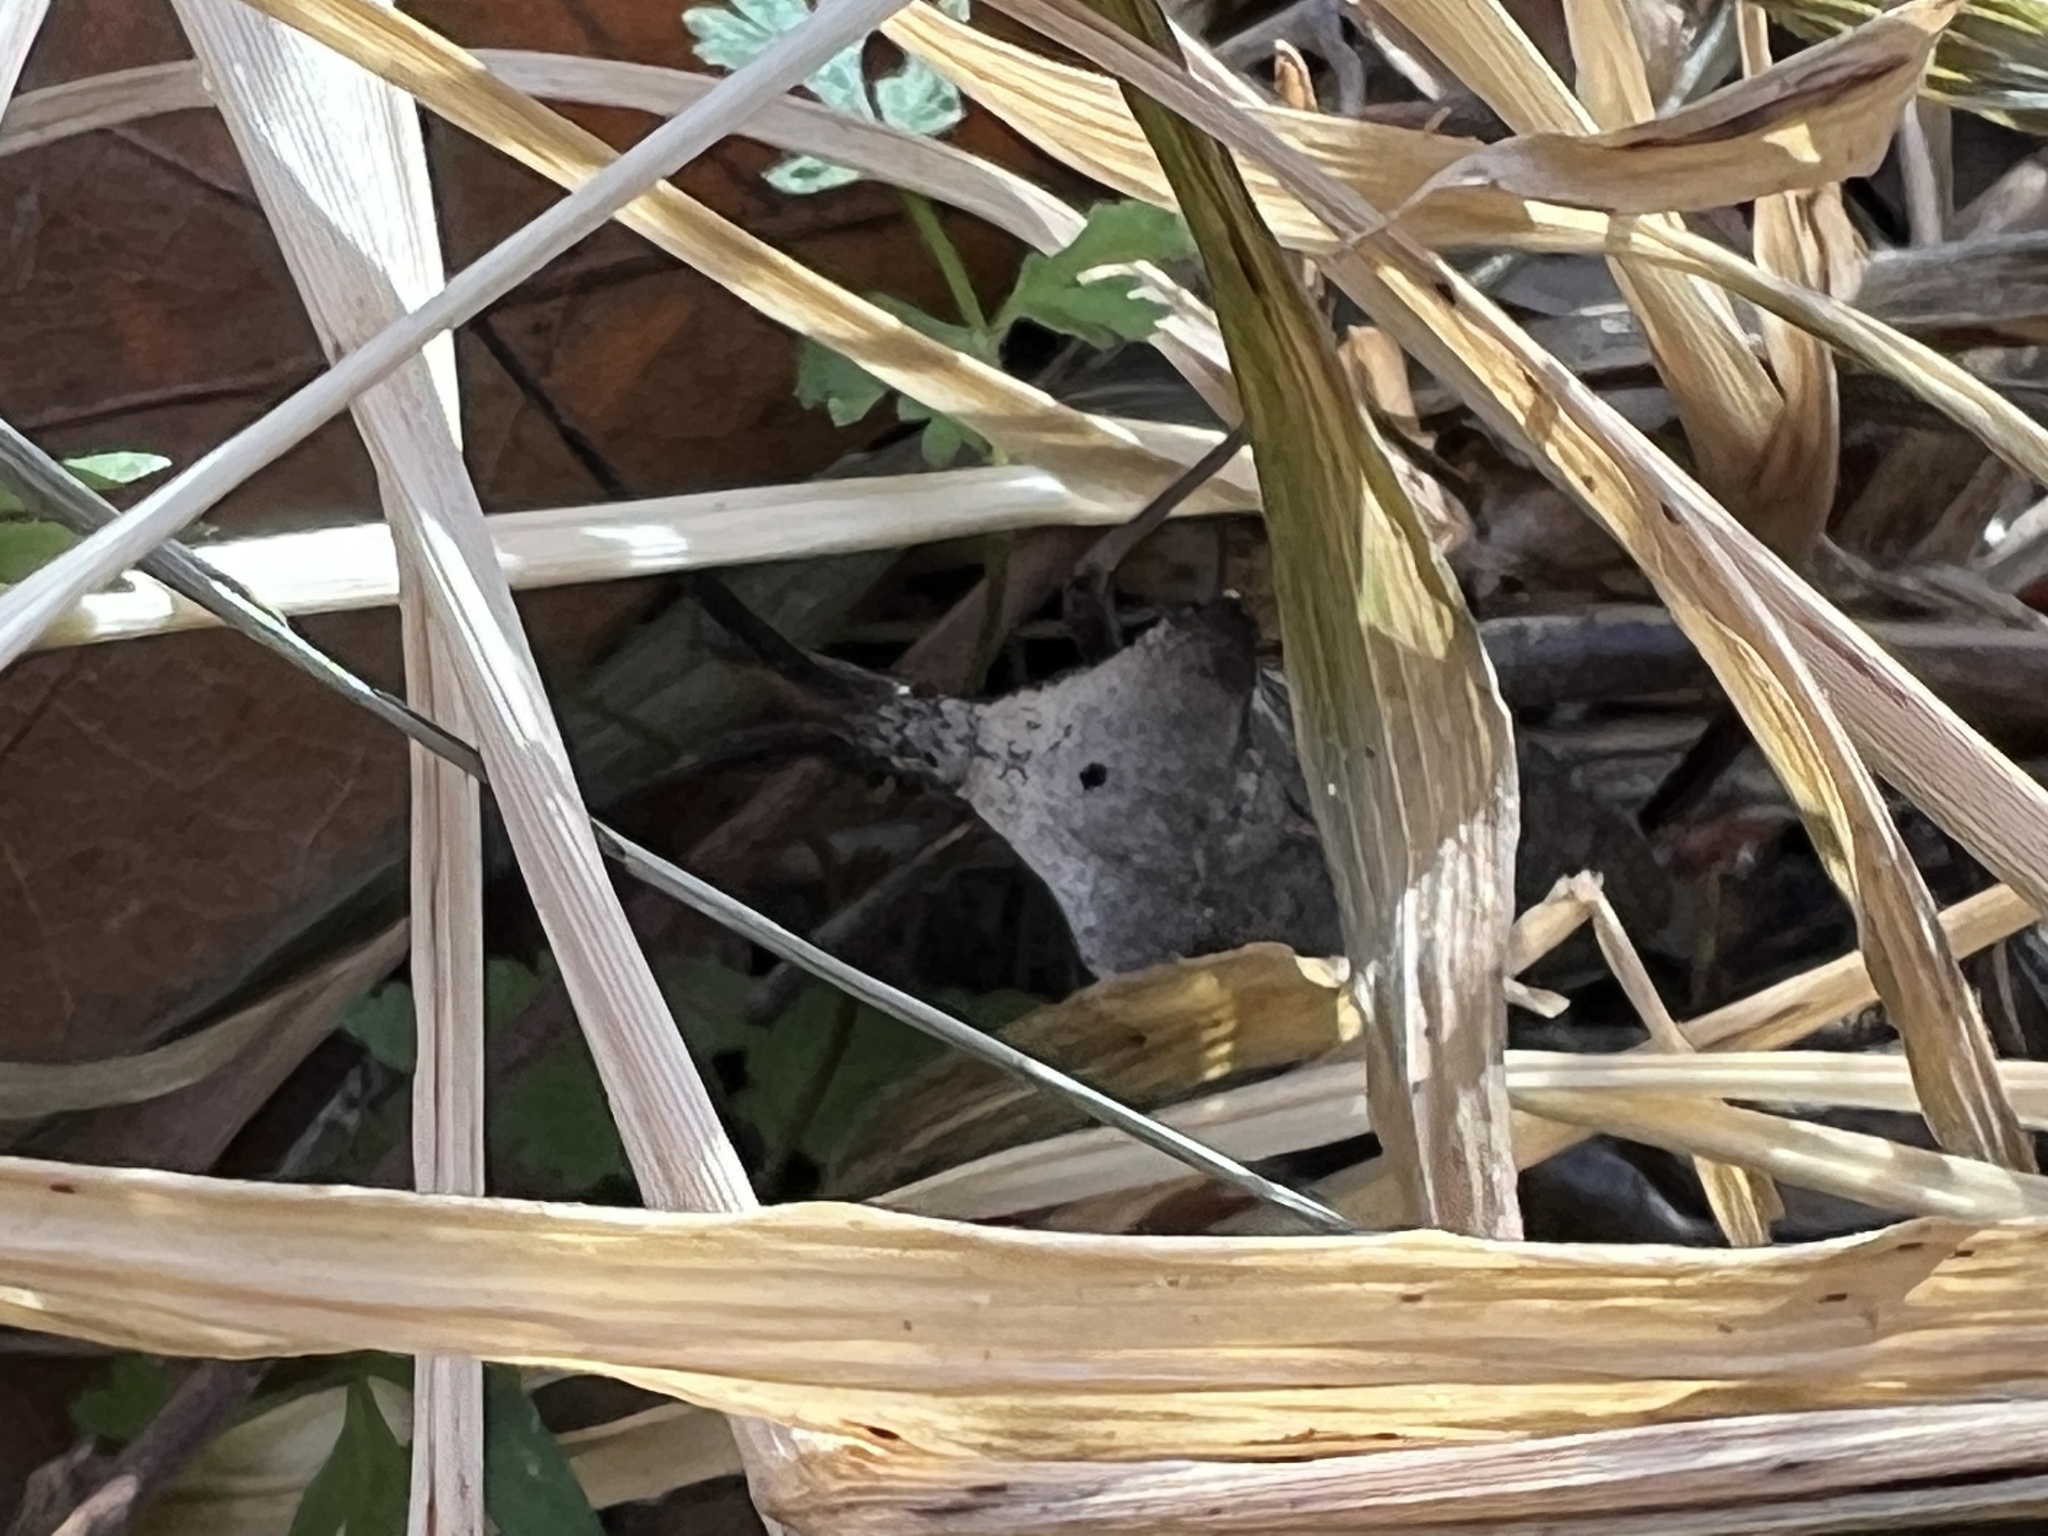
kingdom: Animalia
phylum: Arthropoda
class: Insecta
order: Hemiptera
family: Coreidae
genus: Acanthocephala
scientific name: Acanthocephala alata
